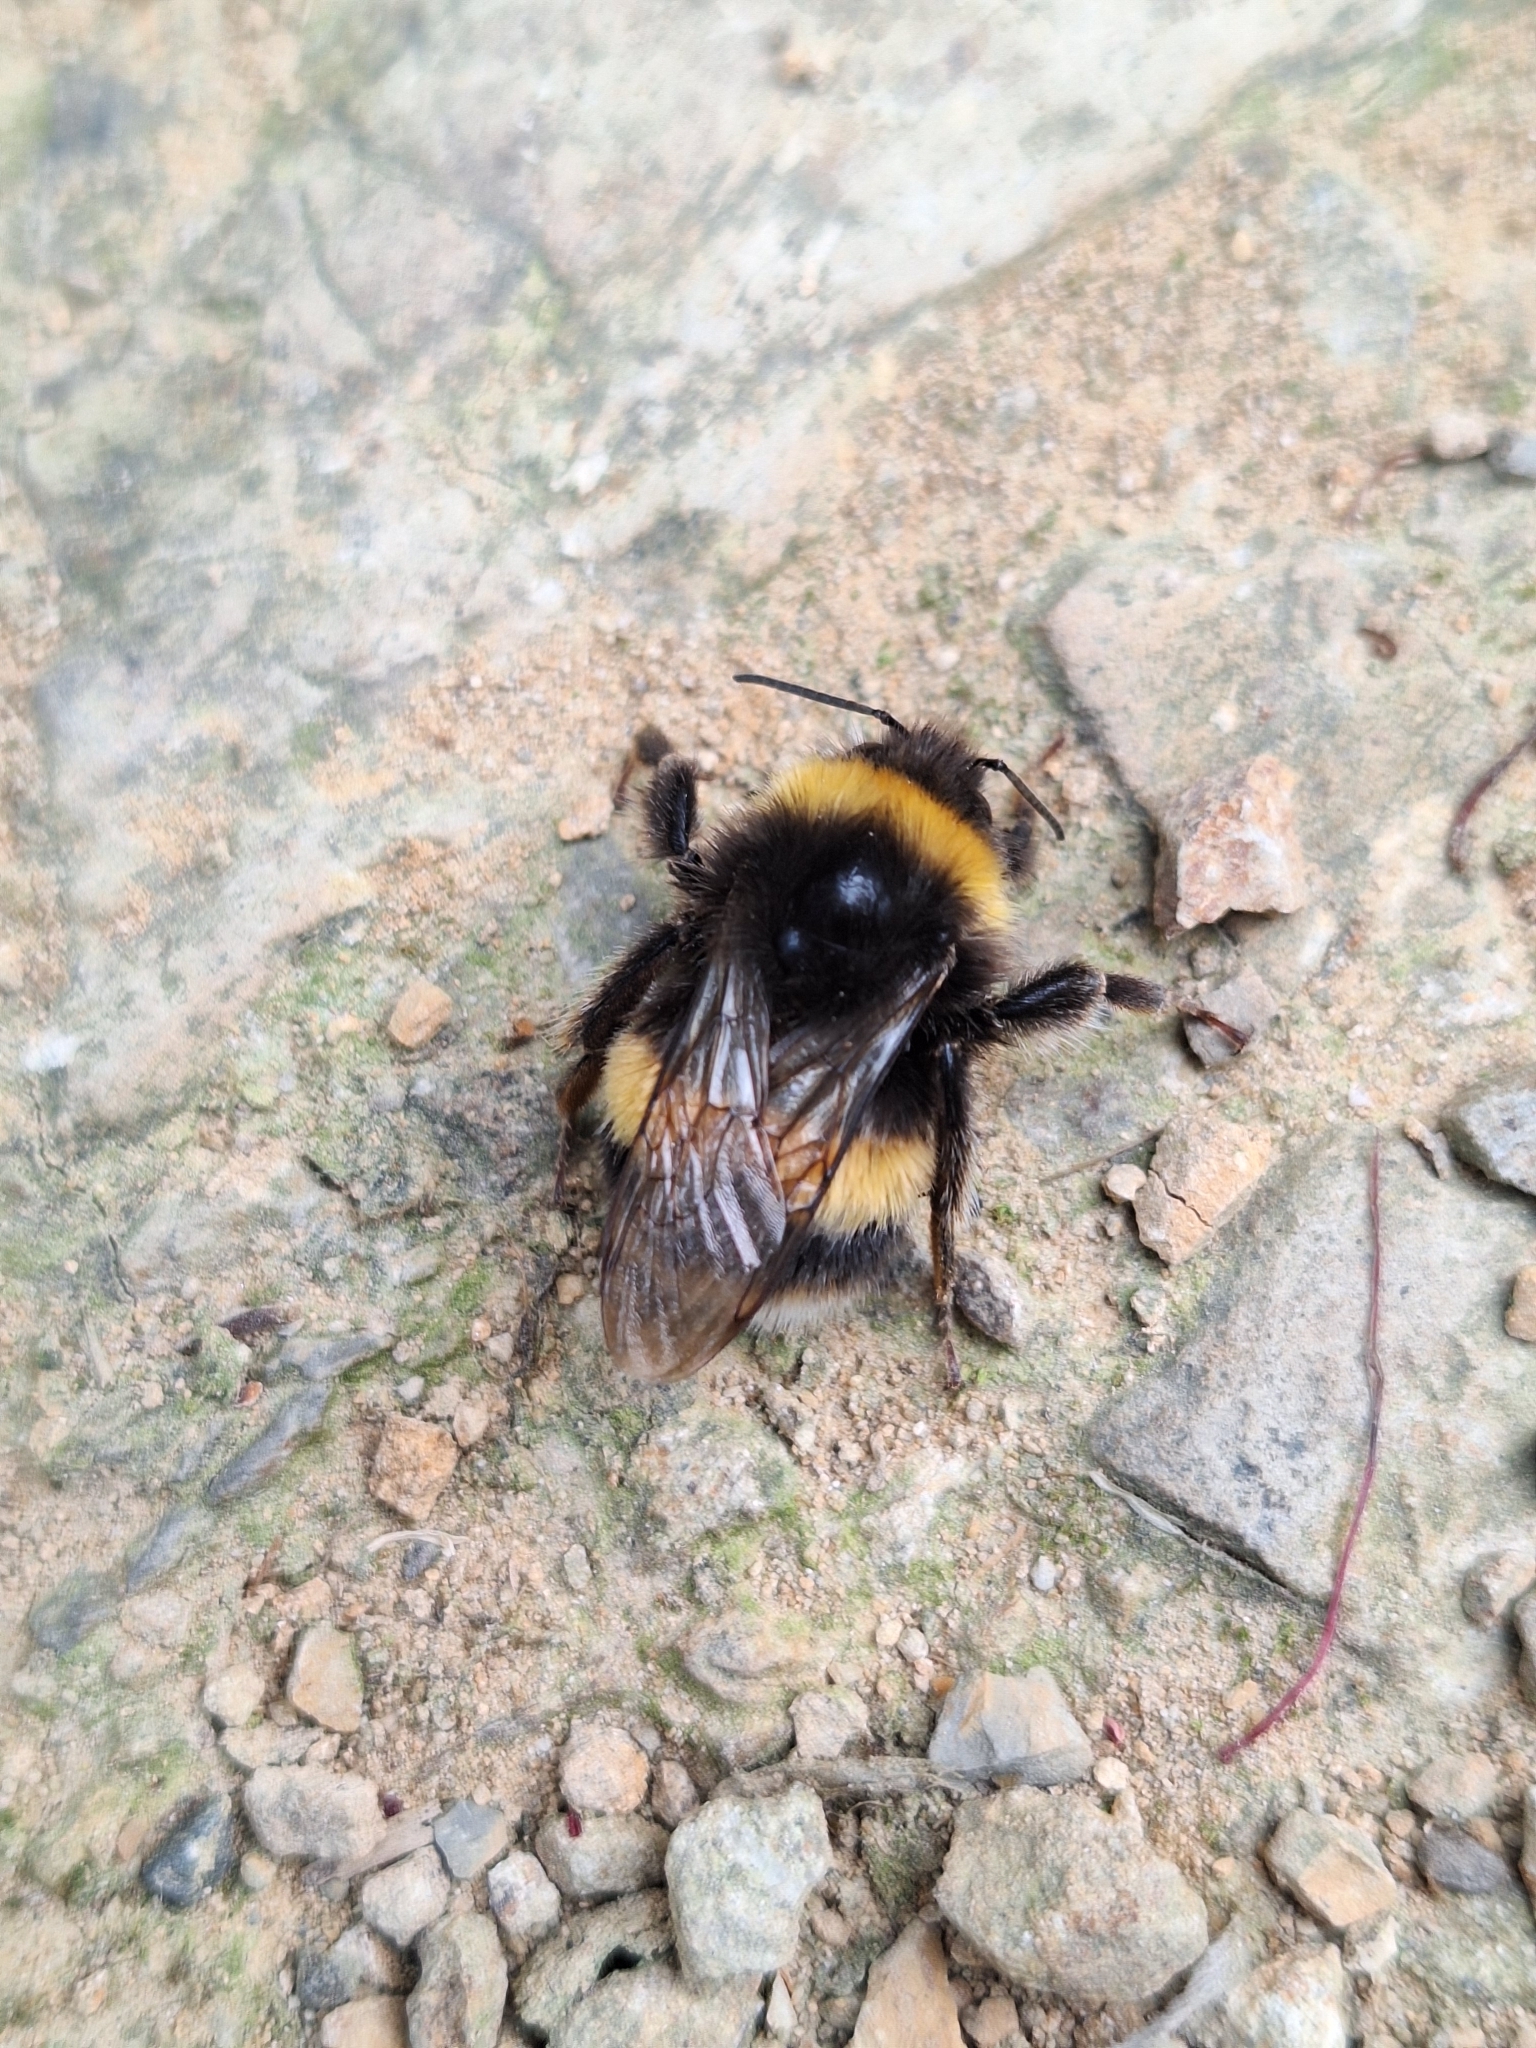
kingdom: Animalia
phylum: Arthropoda
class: Insecta
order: Hymenoptera
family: Apidae
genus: Bombus
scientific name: Bombus terrestris
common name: Buff-tailed bumblebee
